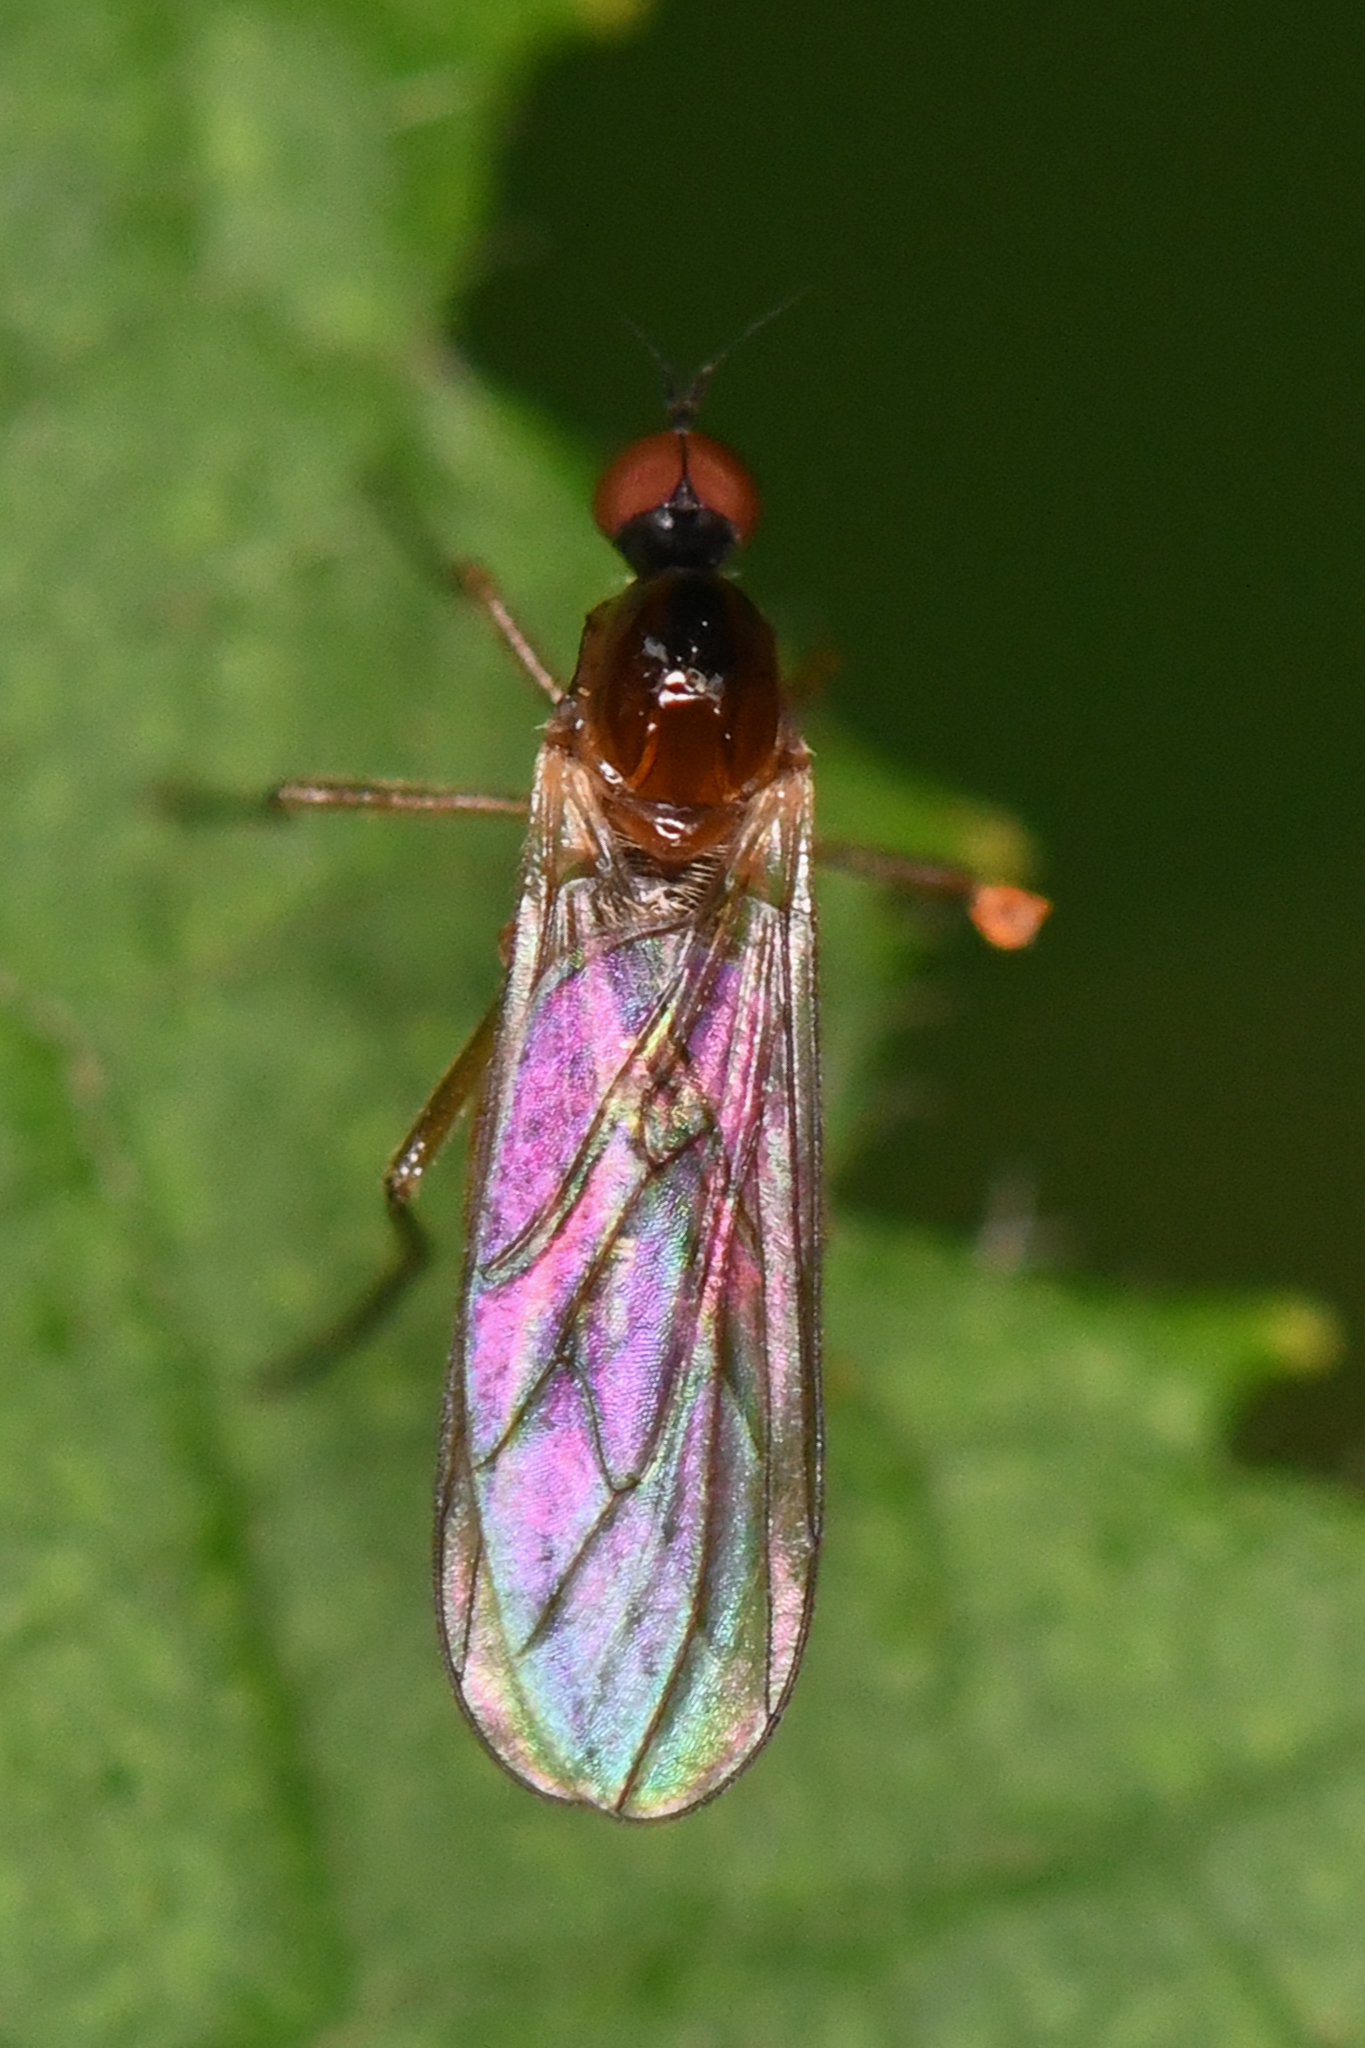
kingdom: Animalia
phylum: Arthropoda
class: Insecta
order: Diptera
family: Hybotidae
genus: Ocydromia
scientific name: Ocydromia glabricula
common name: Dance fly
